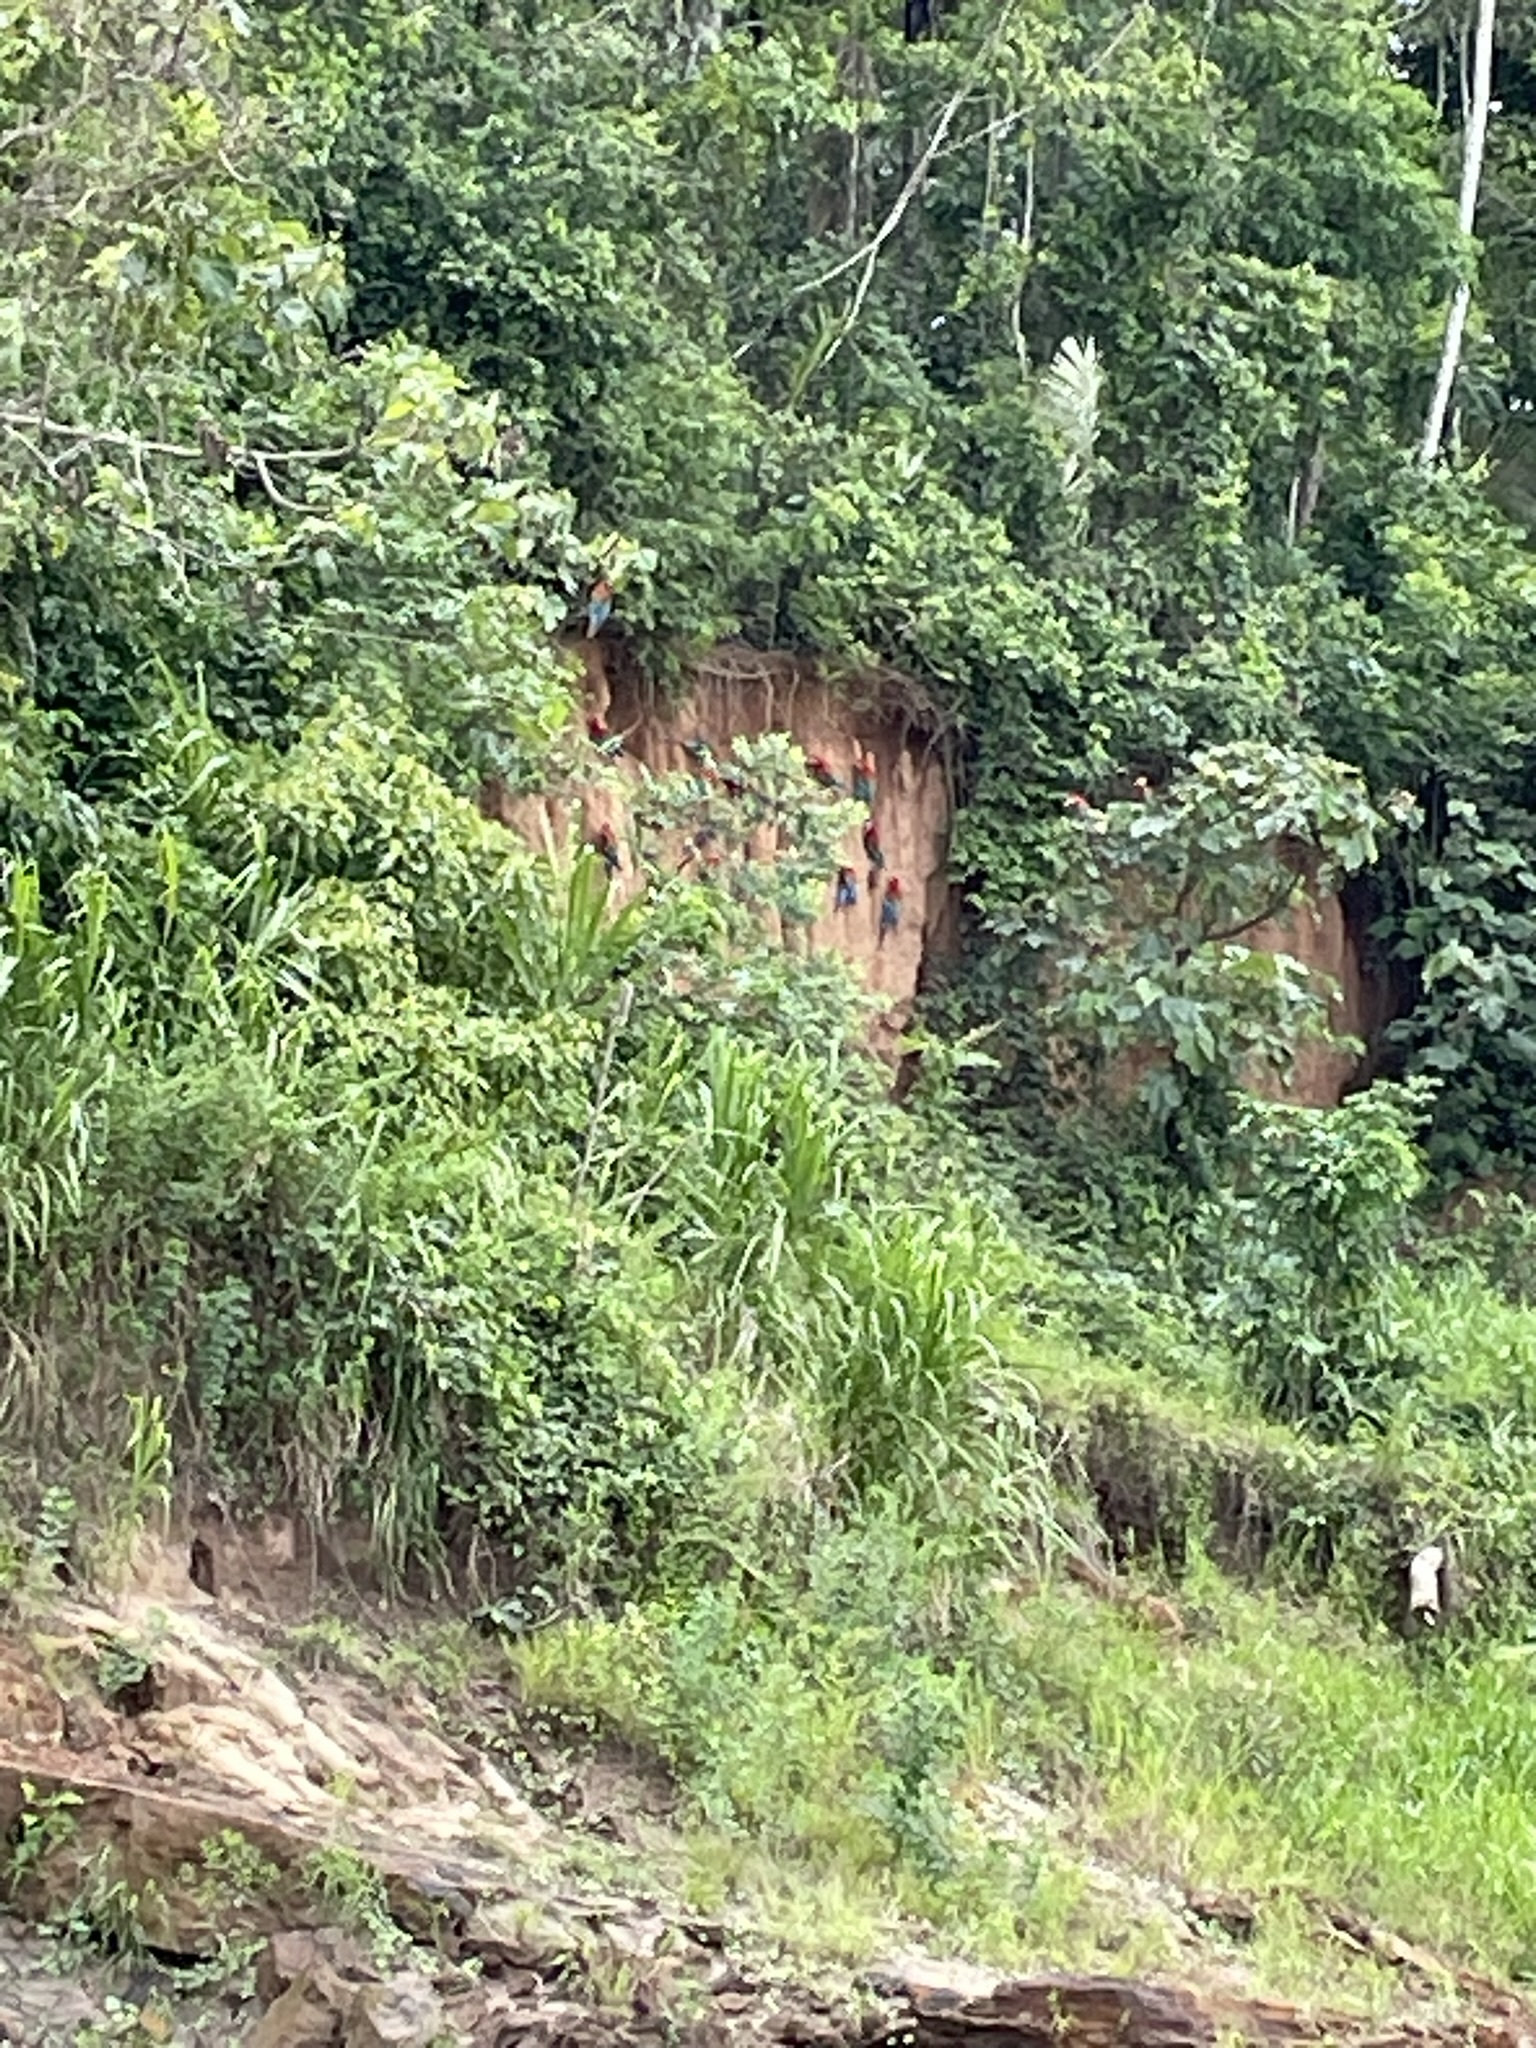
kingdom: Plantae
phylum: Tracheophyta
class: Liliopsida
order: Poales
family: Poaceae
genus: Gynerium
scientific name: Gynerium sagittatum
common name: Wild cane
